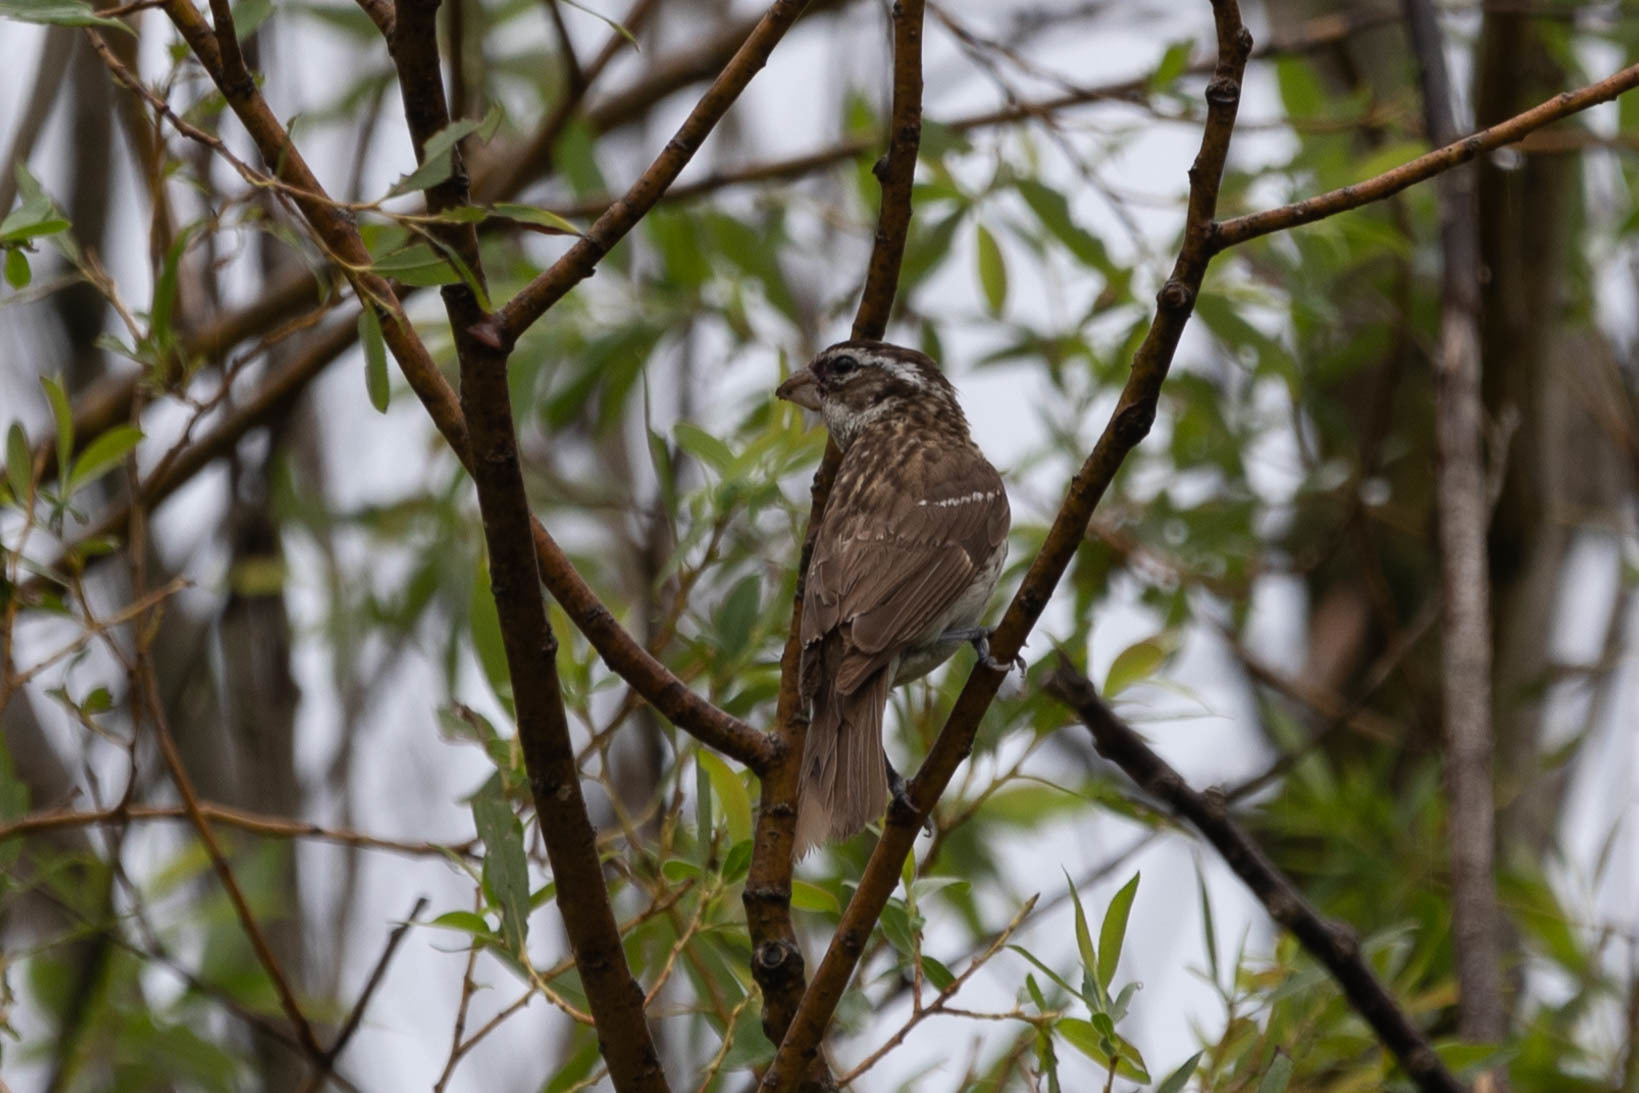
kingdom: Animalia
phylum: Chordata
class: Aves
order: Passeriformes
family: Cardinalidae
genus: Pheucticus
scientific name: Pheucticus ludovicianus
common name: Rose-breasted grosbeak
